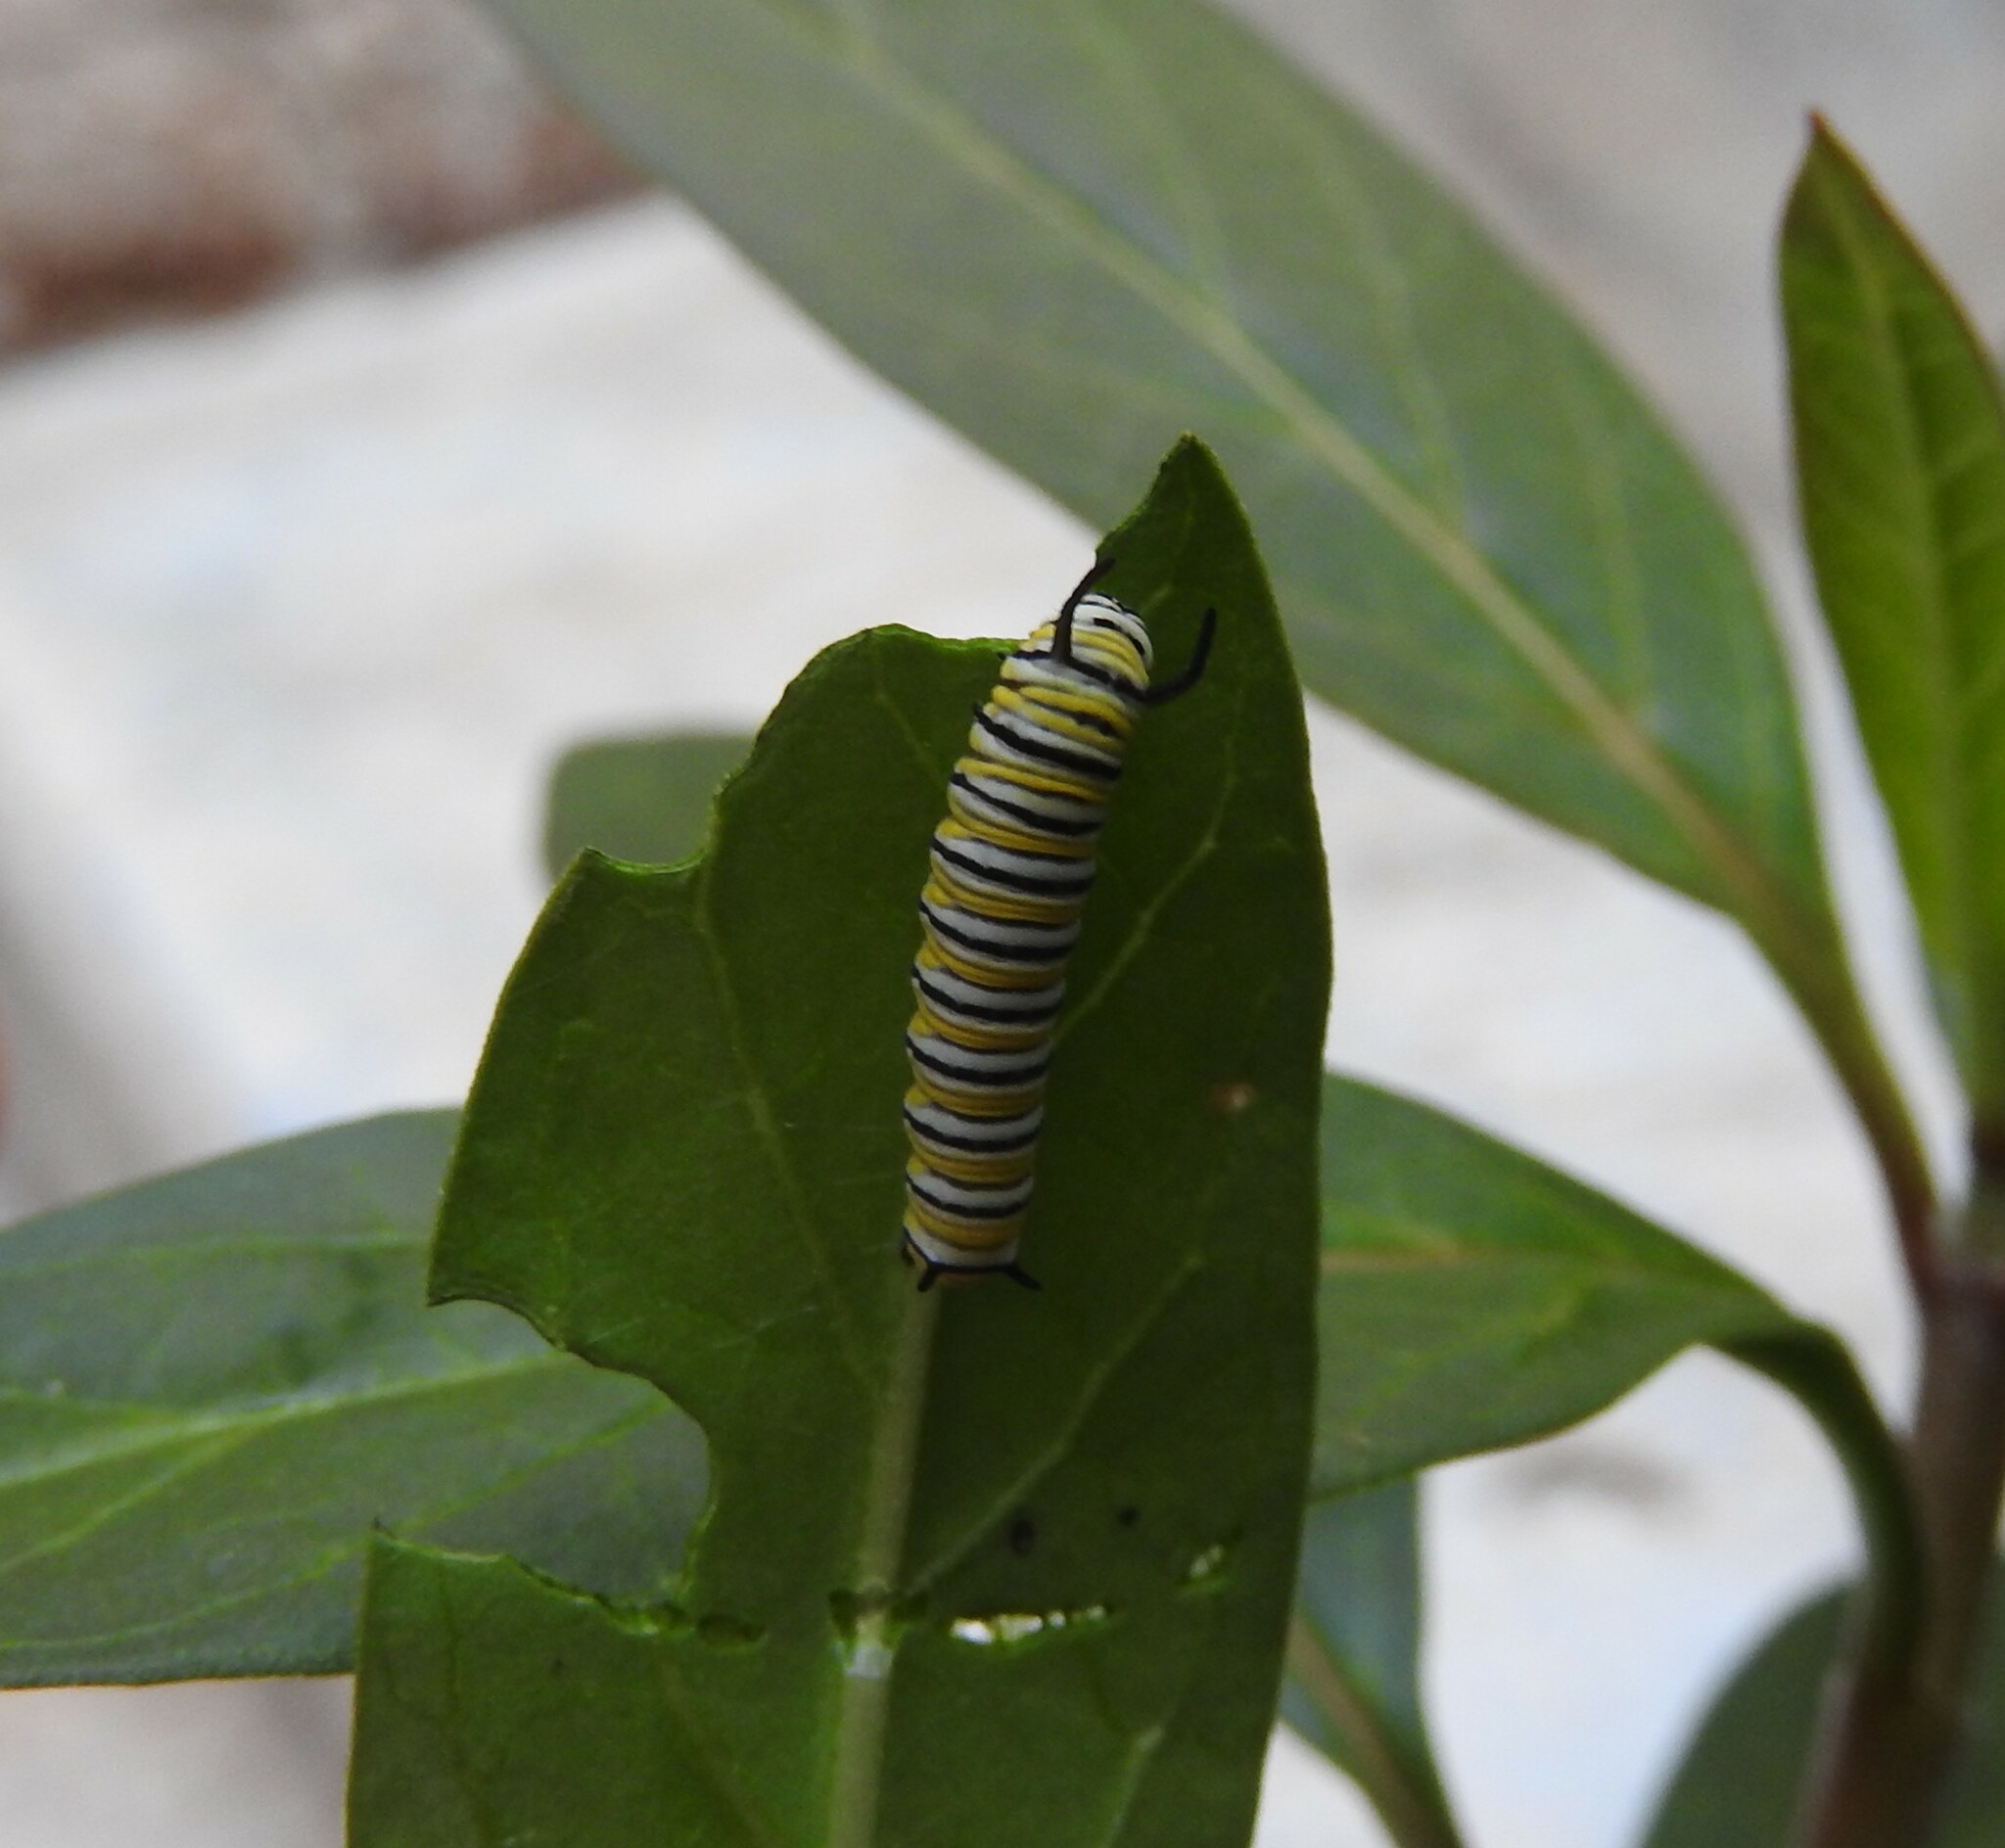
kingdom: Animalia
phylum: Arthropoda
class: Insecta
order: Lepidoptera
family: Nymphalidae
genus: Danaus
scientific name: Danaus plexippus
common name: Monarch
